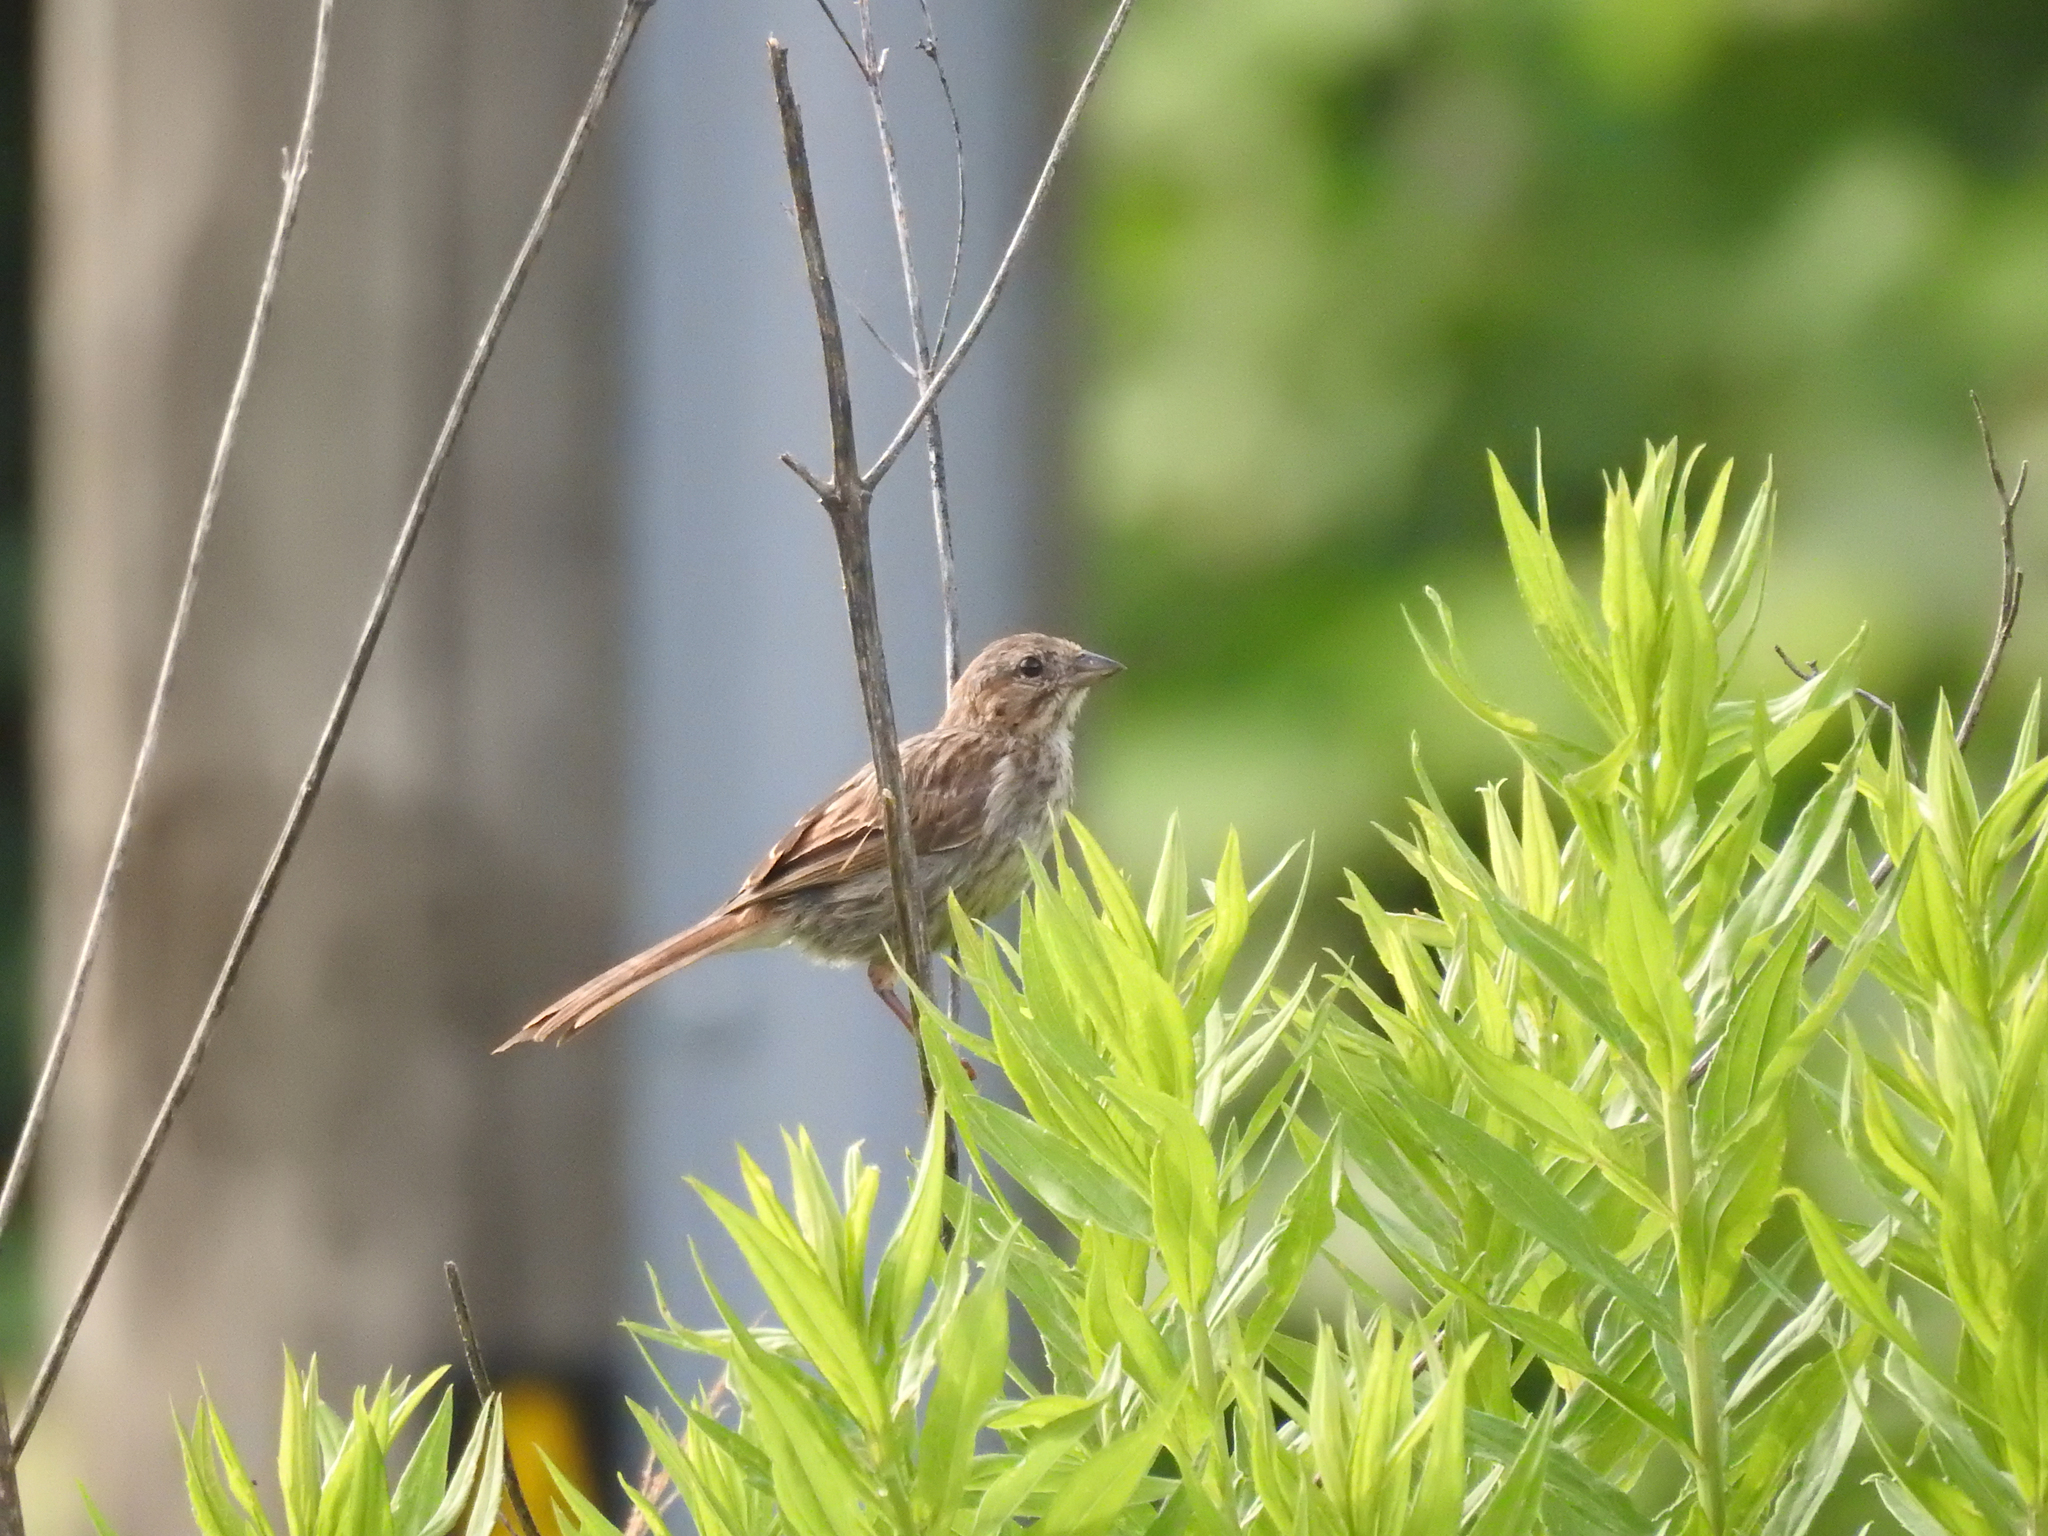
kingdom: Animalia
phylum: Chordata
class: Aves
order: Passeriformes
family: Passerellidae
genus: Melospiza
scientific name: Melospiza melodia
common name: Song sparrow
